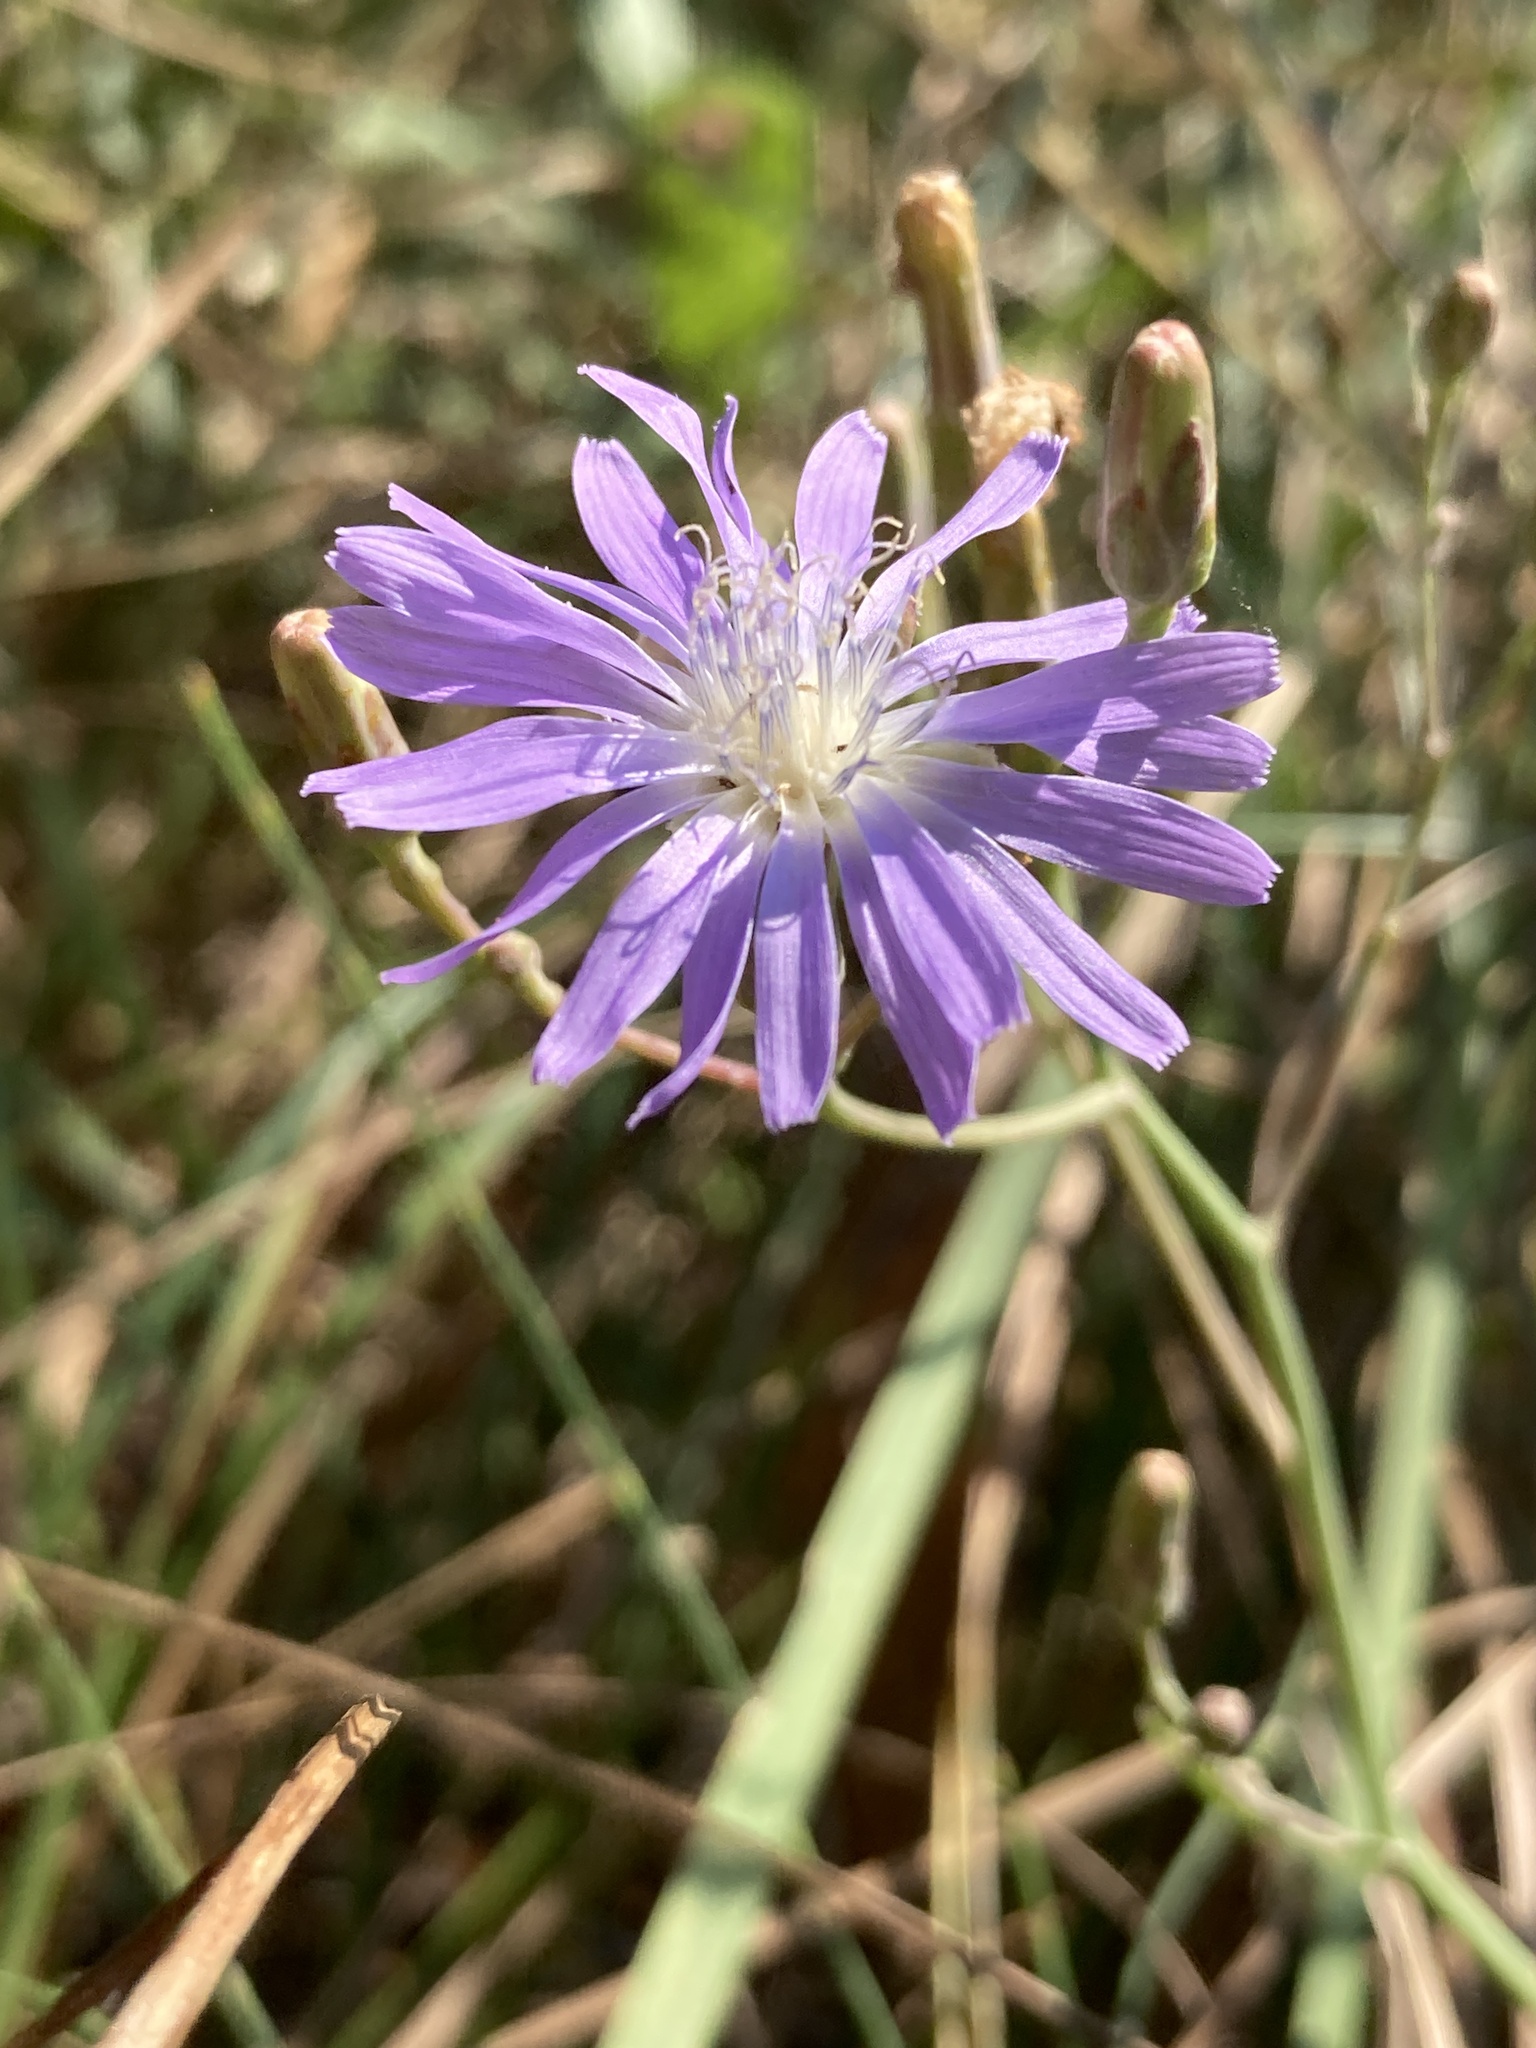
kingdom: Plantae
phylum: Tracheophyta
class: Magnoliopsida
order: Asterales
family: Asteraceae
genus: Lactuca
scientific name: Lactuca tatarica
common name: Blue lettuce
